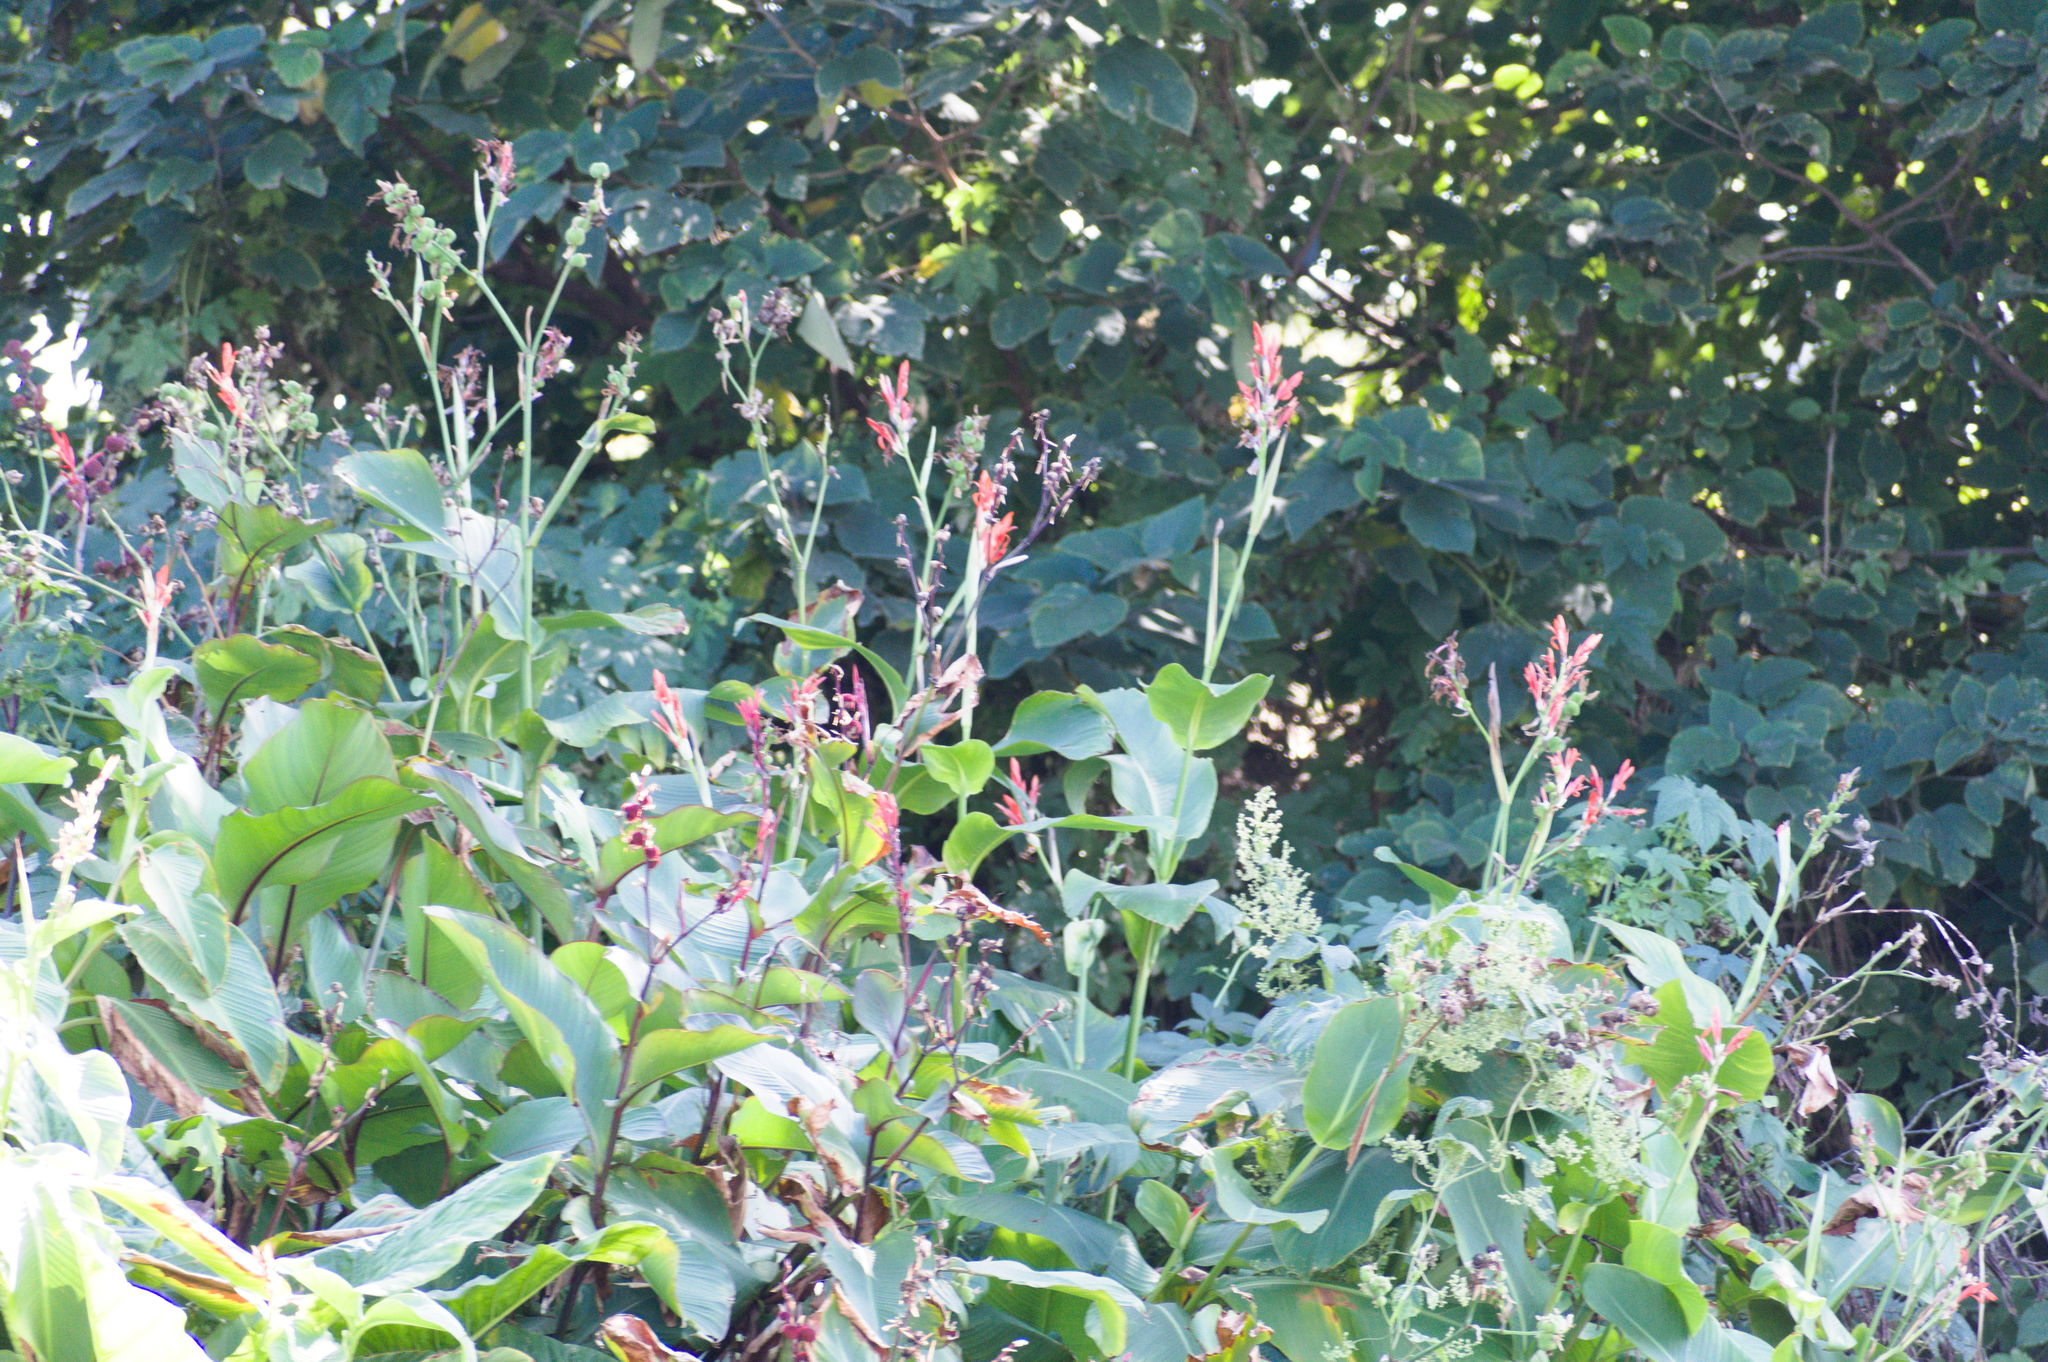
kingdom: Plantae
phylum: Tracheophyta
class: Liliopsida
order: Zingiberales
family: Cannaceae
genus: Canna
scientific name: Canna indica
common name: Indian shot
